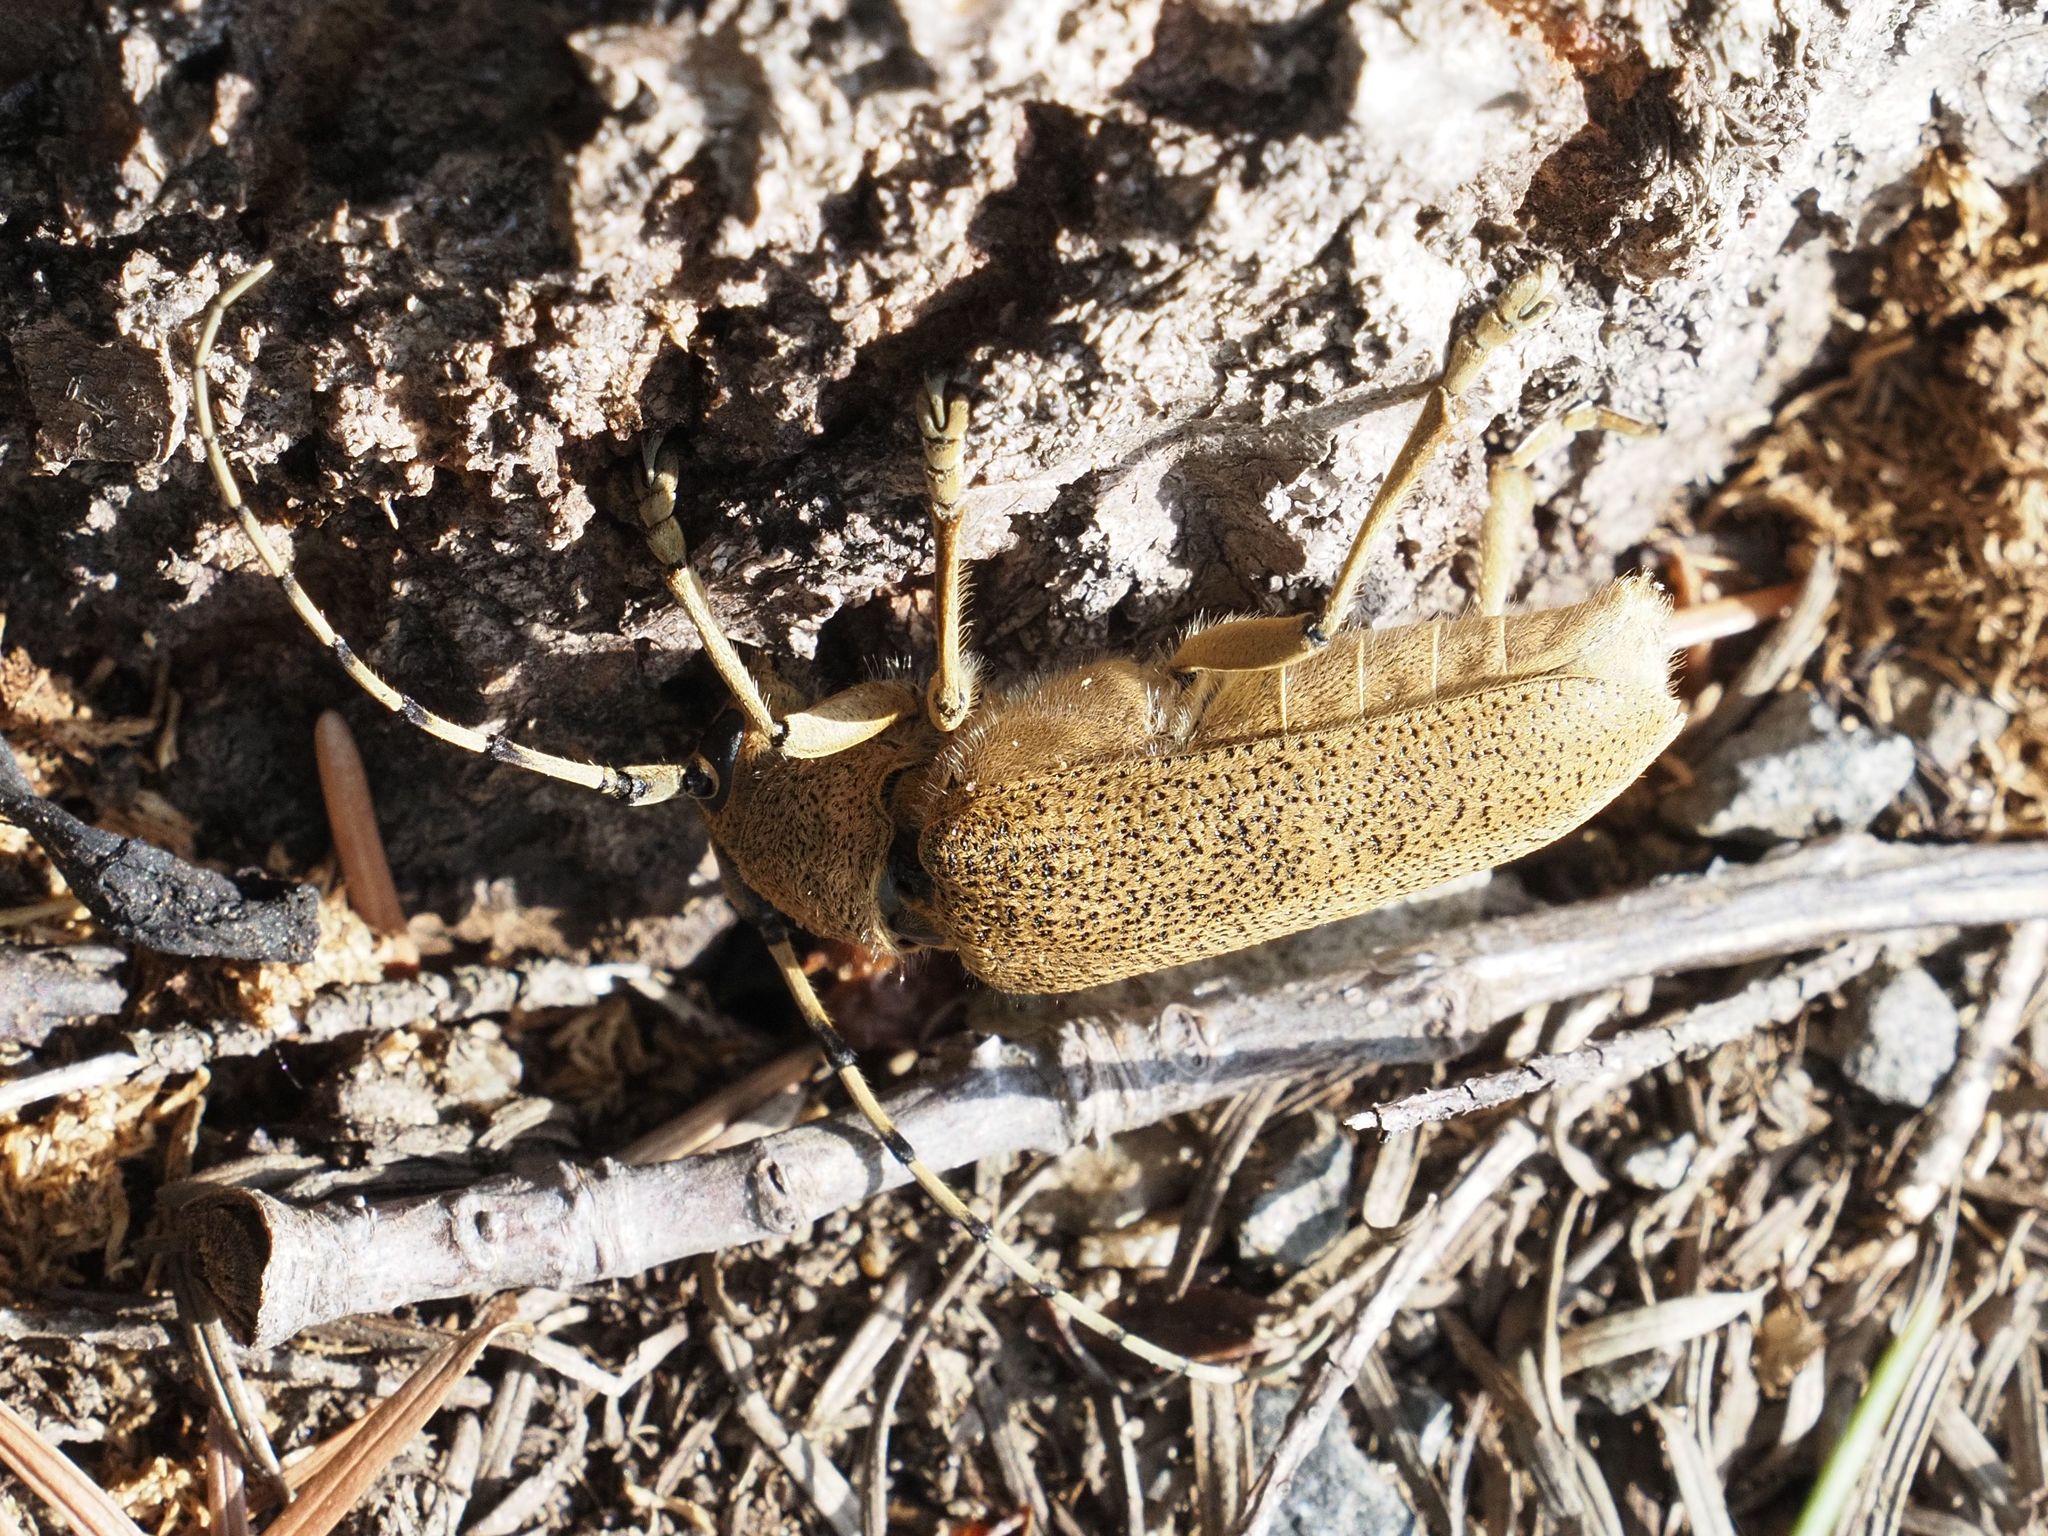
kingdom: Animalia
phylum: Arthropoda
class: Insecta
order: Coleoptera
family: Cerambycidae
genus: Saperda
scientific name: Saperda carcharias
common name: Poplar borer
